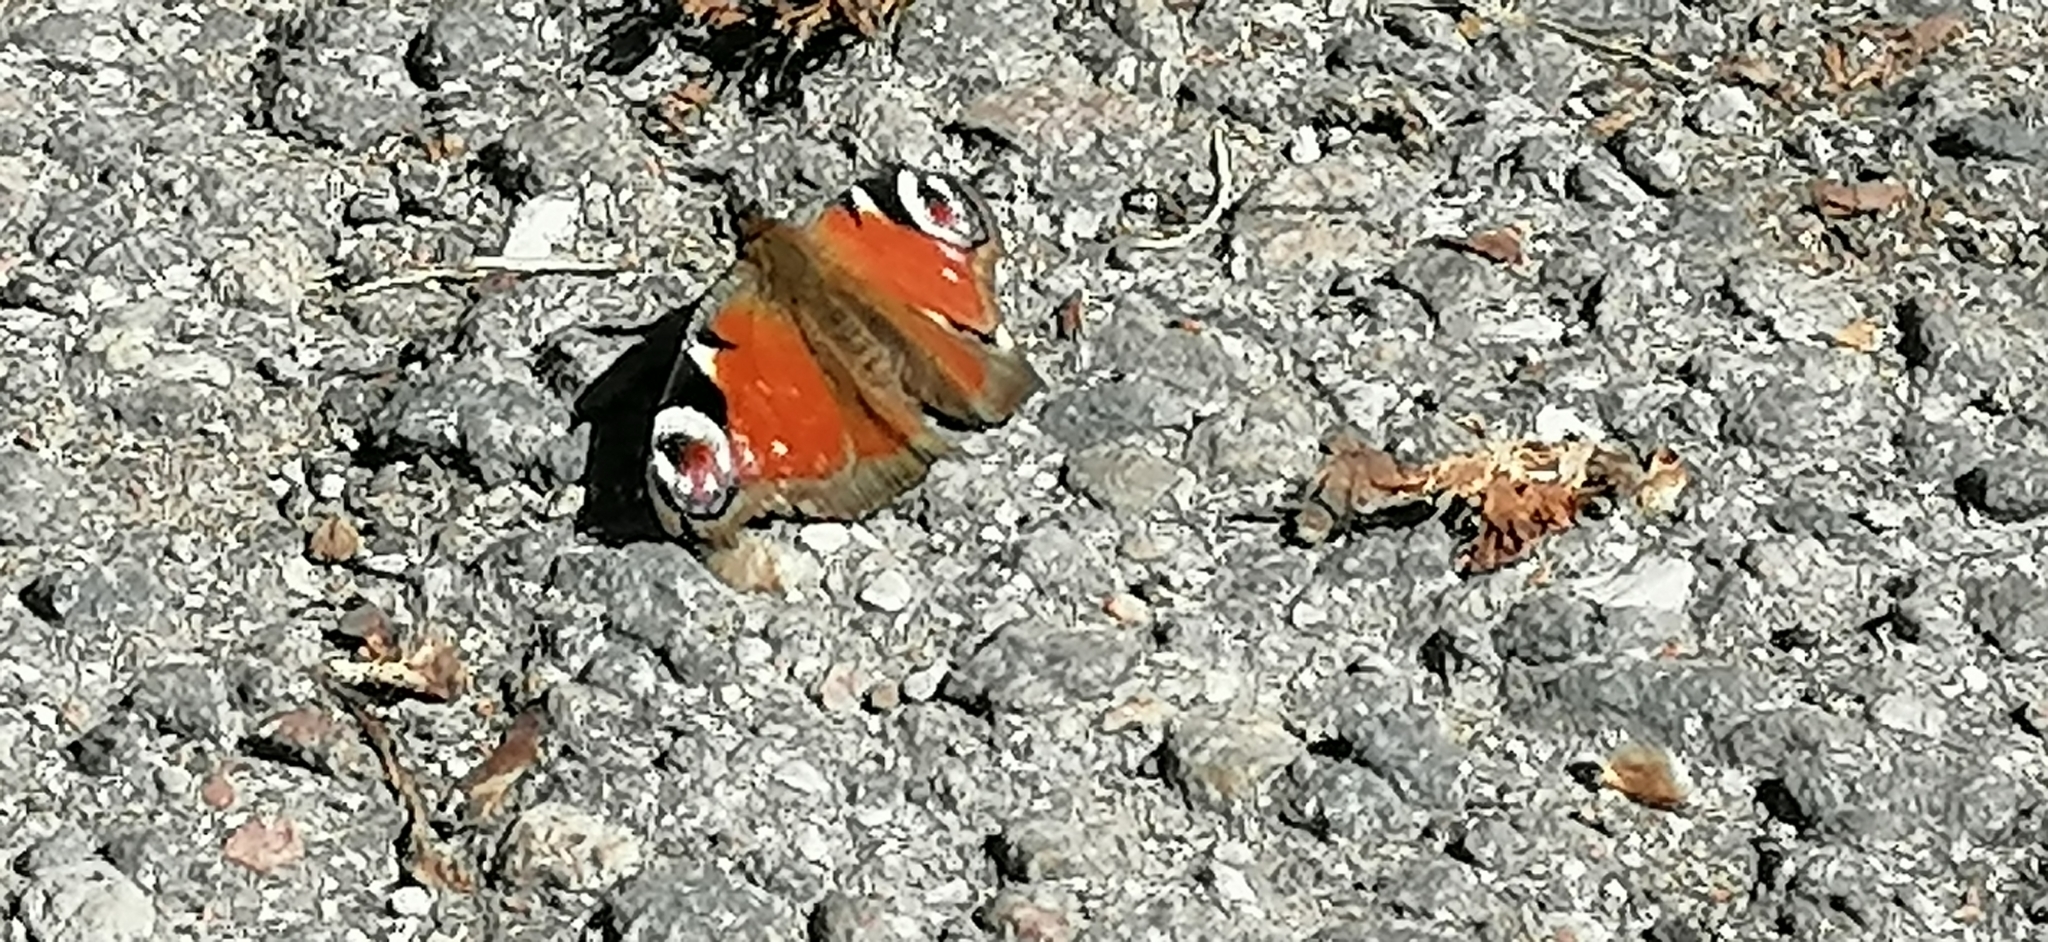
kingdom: Animalia
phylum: Arthropoda
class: Insecta
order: Lepidoptera
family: Nymphalidae
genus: Aglais
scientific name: Aglais io
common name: Peacock
